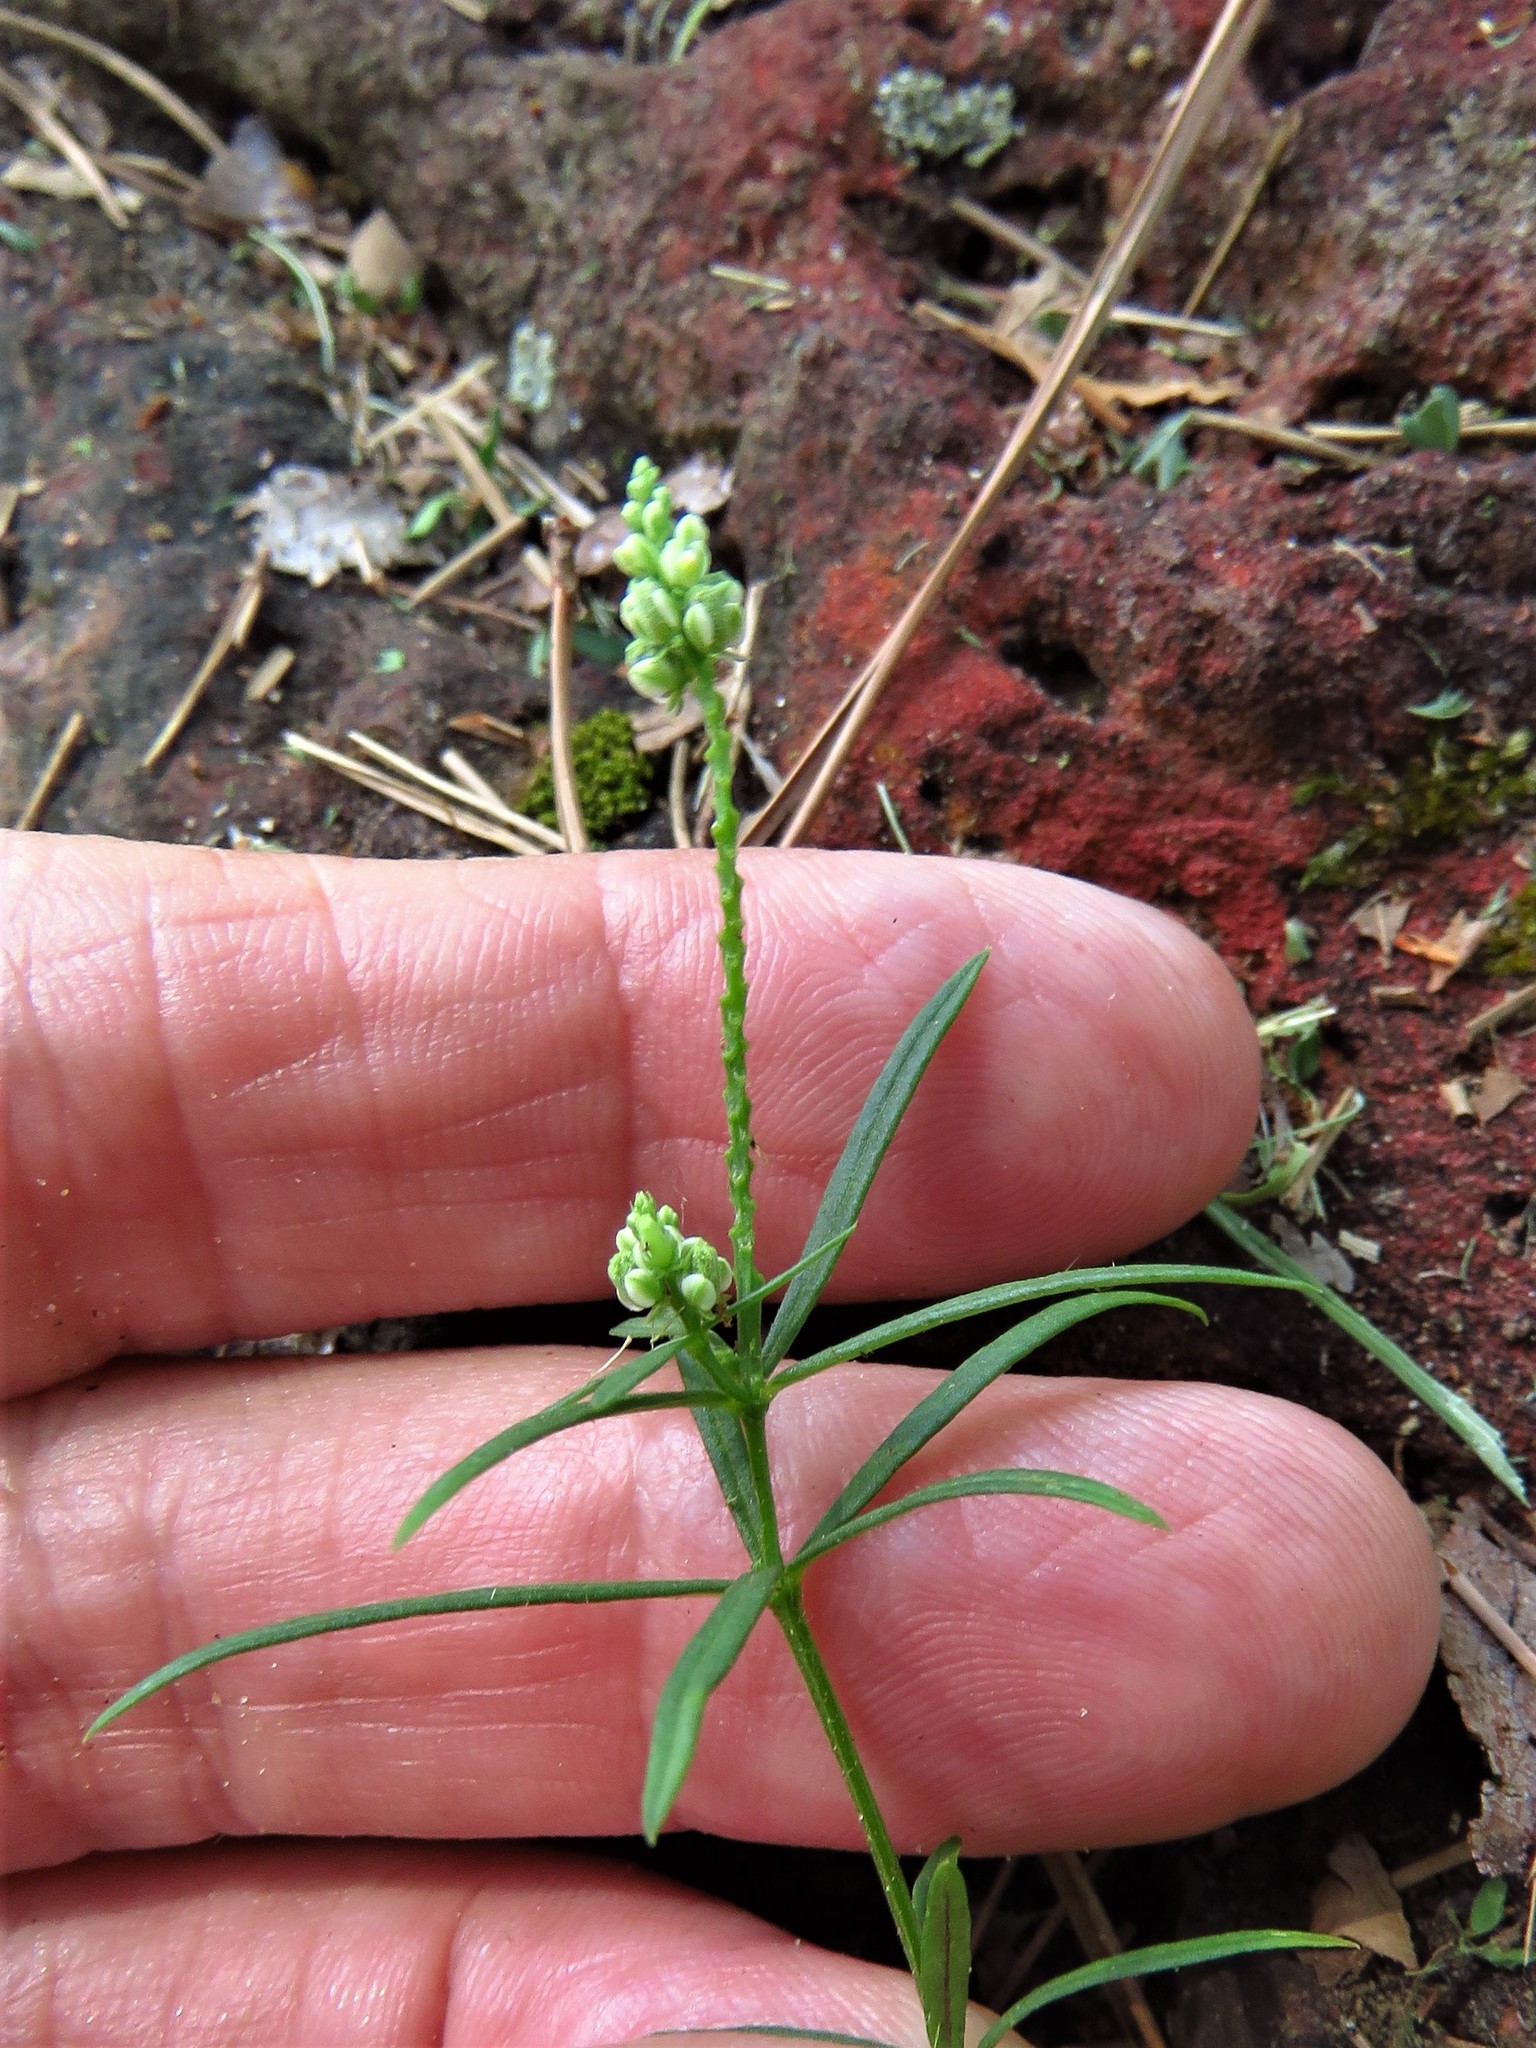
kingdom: Plantae
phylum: Tracheophyta
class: Magnoliopsida
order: Fabales
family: Polygalaceae
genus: Polygala
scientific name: Polygala verticillata
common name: Whorl milkwort
